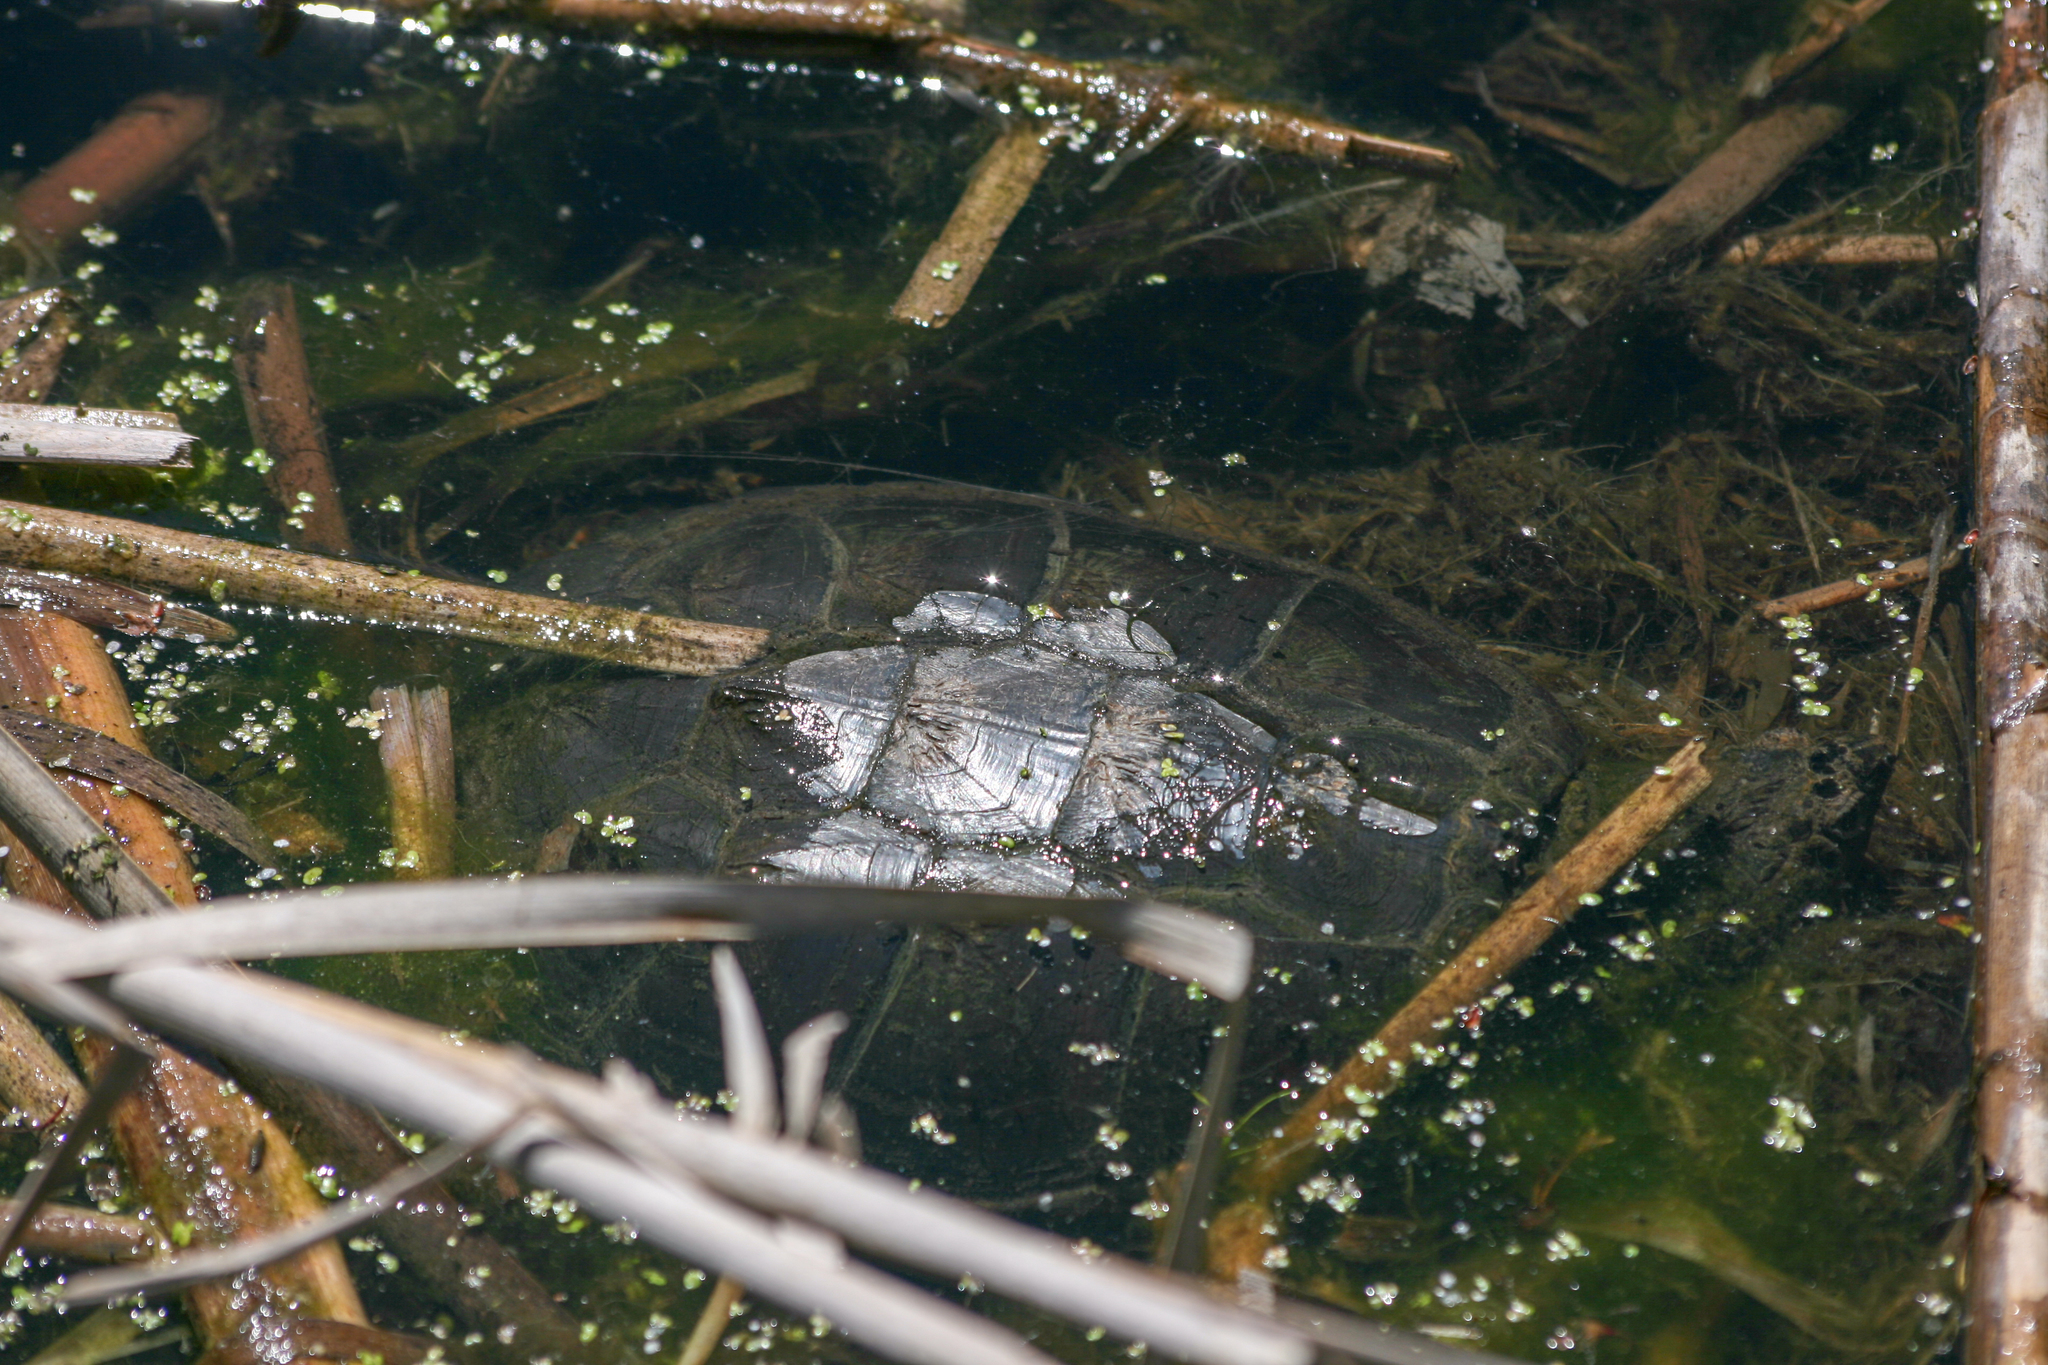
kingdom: Animalia
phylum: Chordata
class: Testudines
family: Chelydridae
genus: Chelydra
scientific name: Chelydra serpentina
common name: Common snapping turtle
